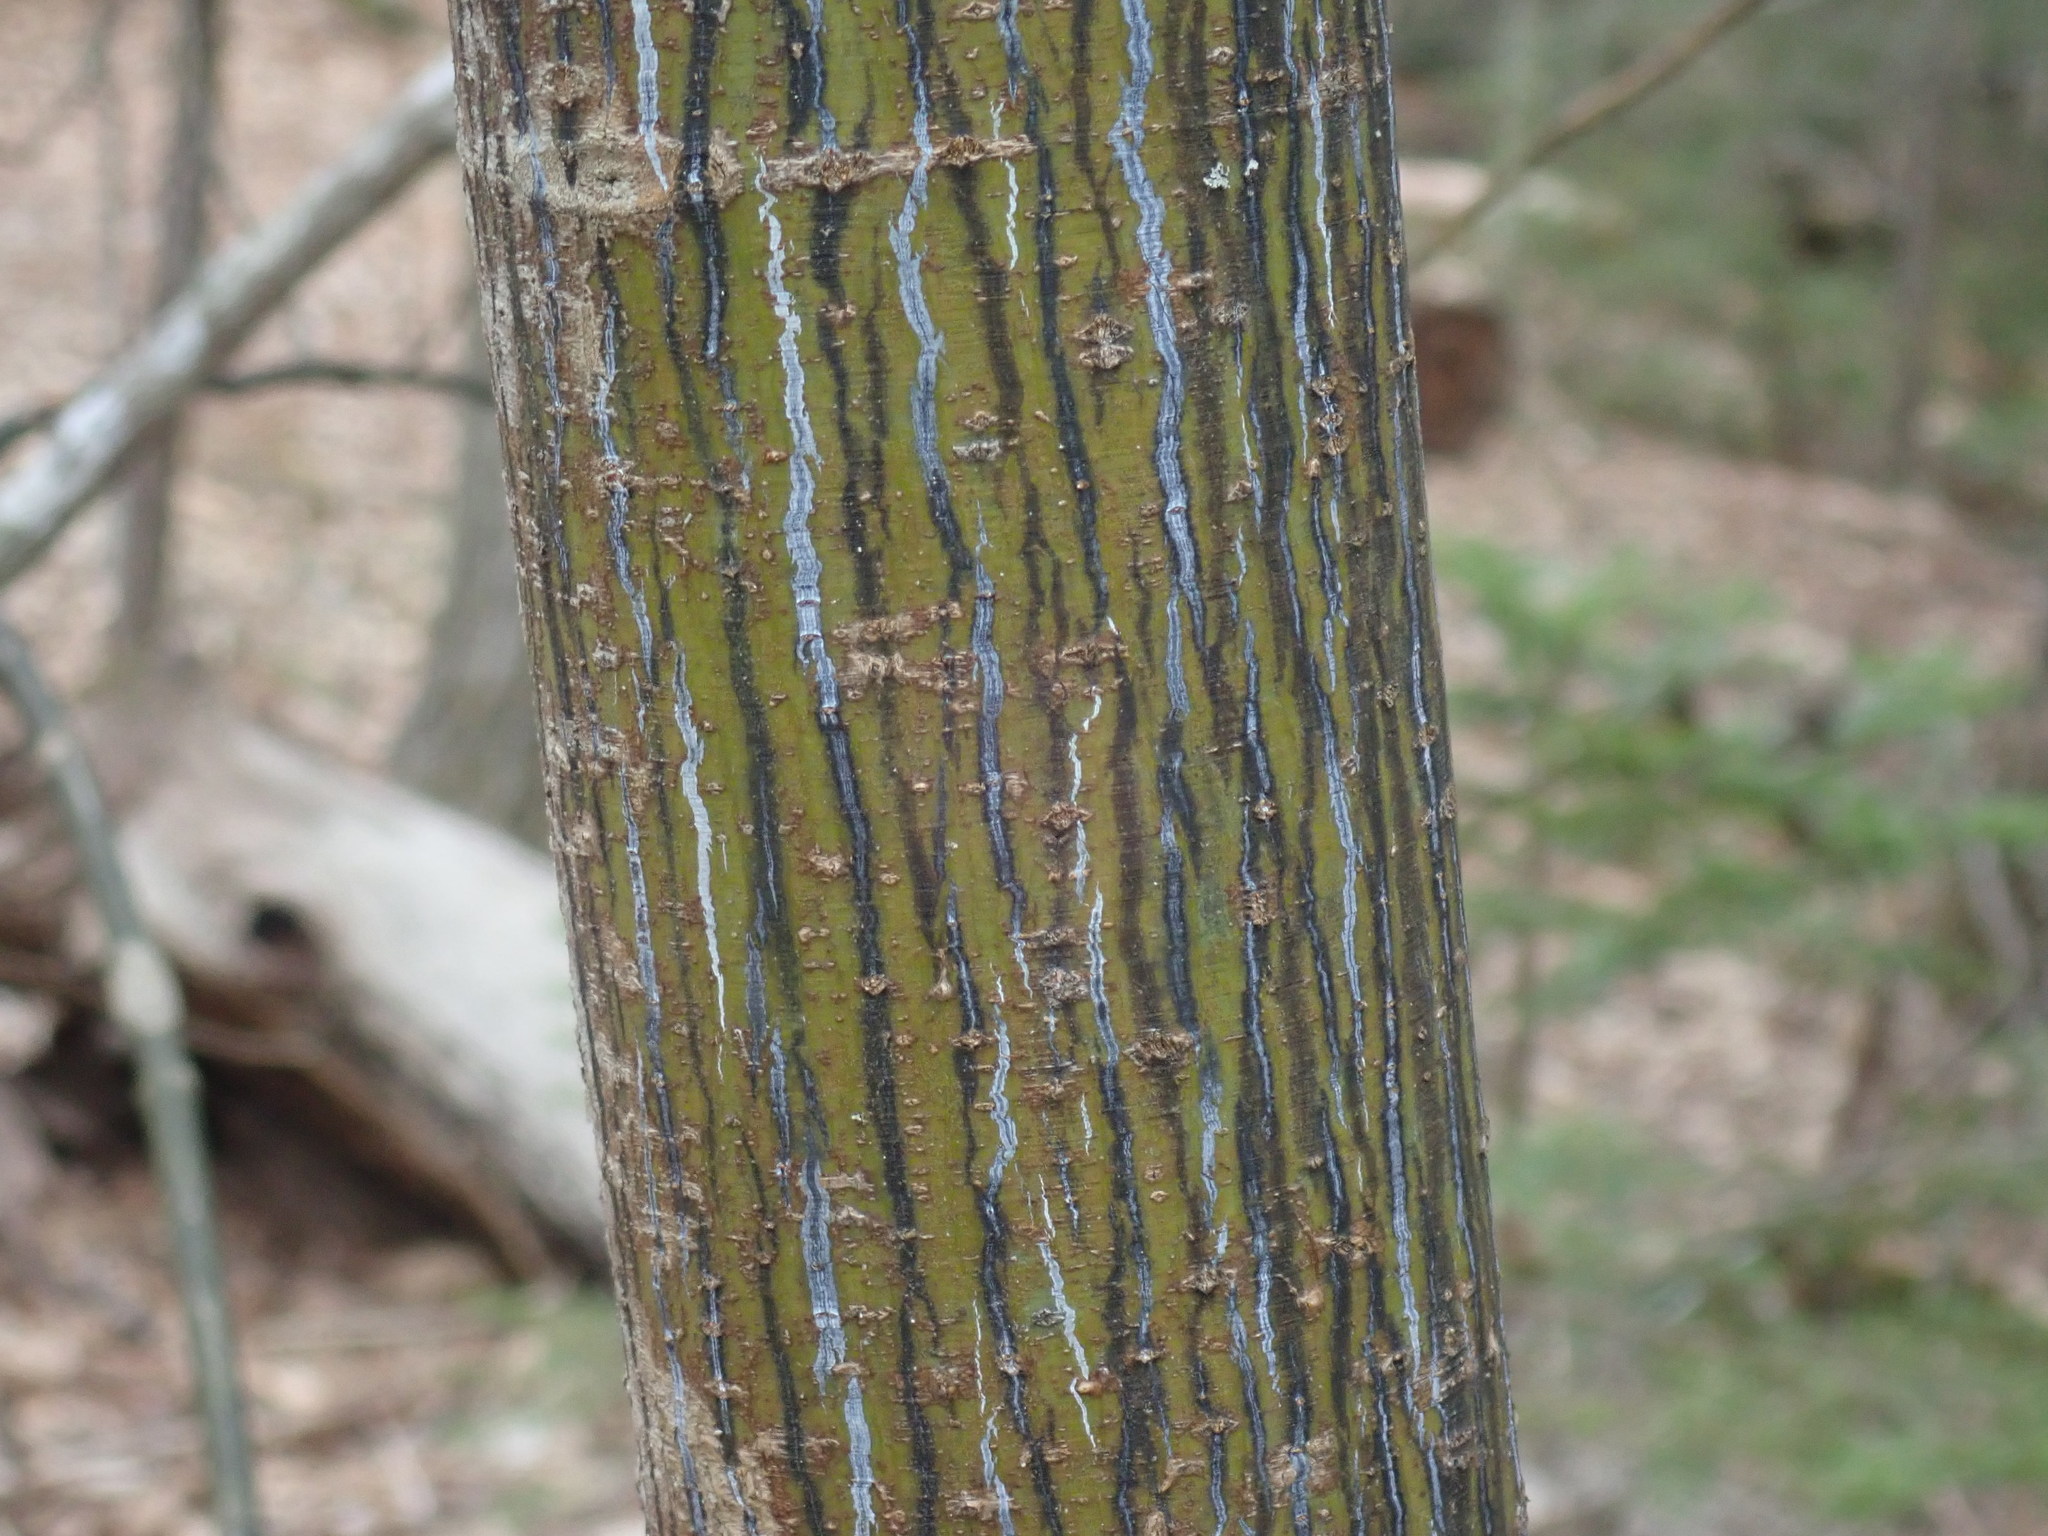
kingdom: Plantae
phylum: Tracheophyta
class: Magnoliopsida
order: Sapindales
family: Sapindaceae
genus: Acer
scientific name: Acer pensylvanicum
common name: Moosewood
